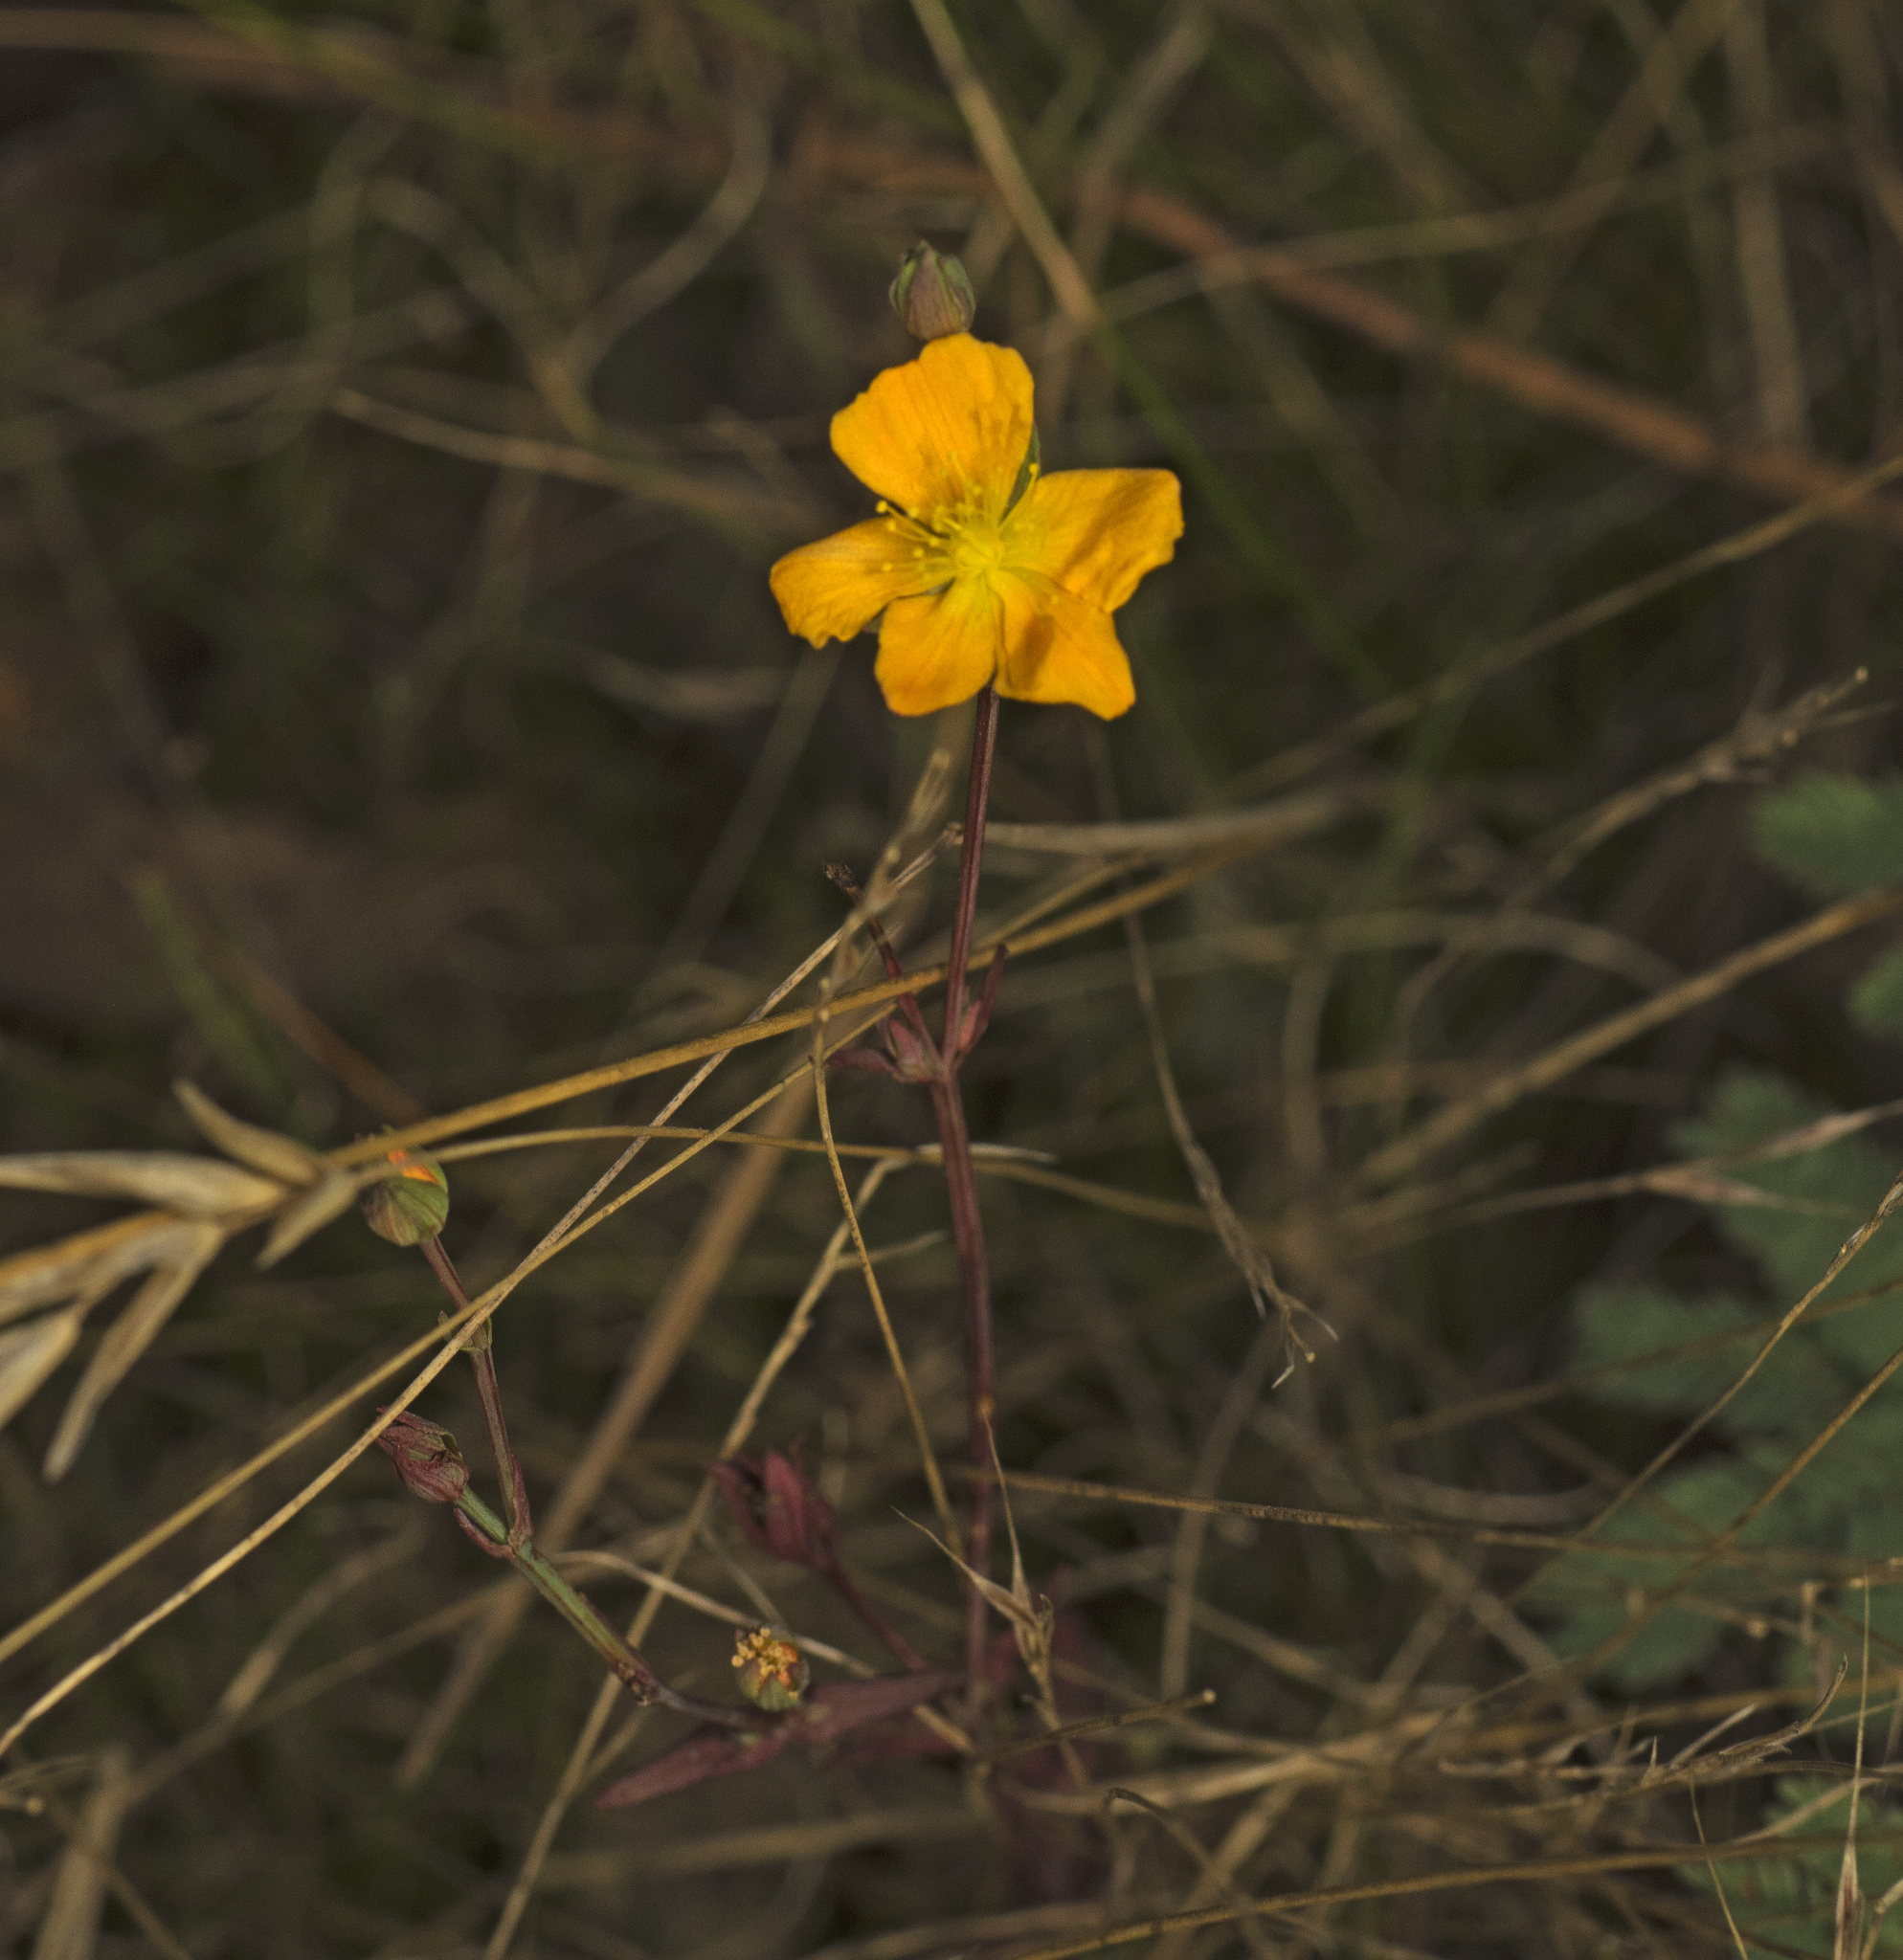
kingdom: Plantae
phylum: Tracheophyta
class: Magnoliopsida
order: Malpighiales
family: Hypericaceae
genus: Hypericum
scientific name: Hypericum gramineum
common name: Grassy st. johnswort
